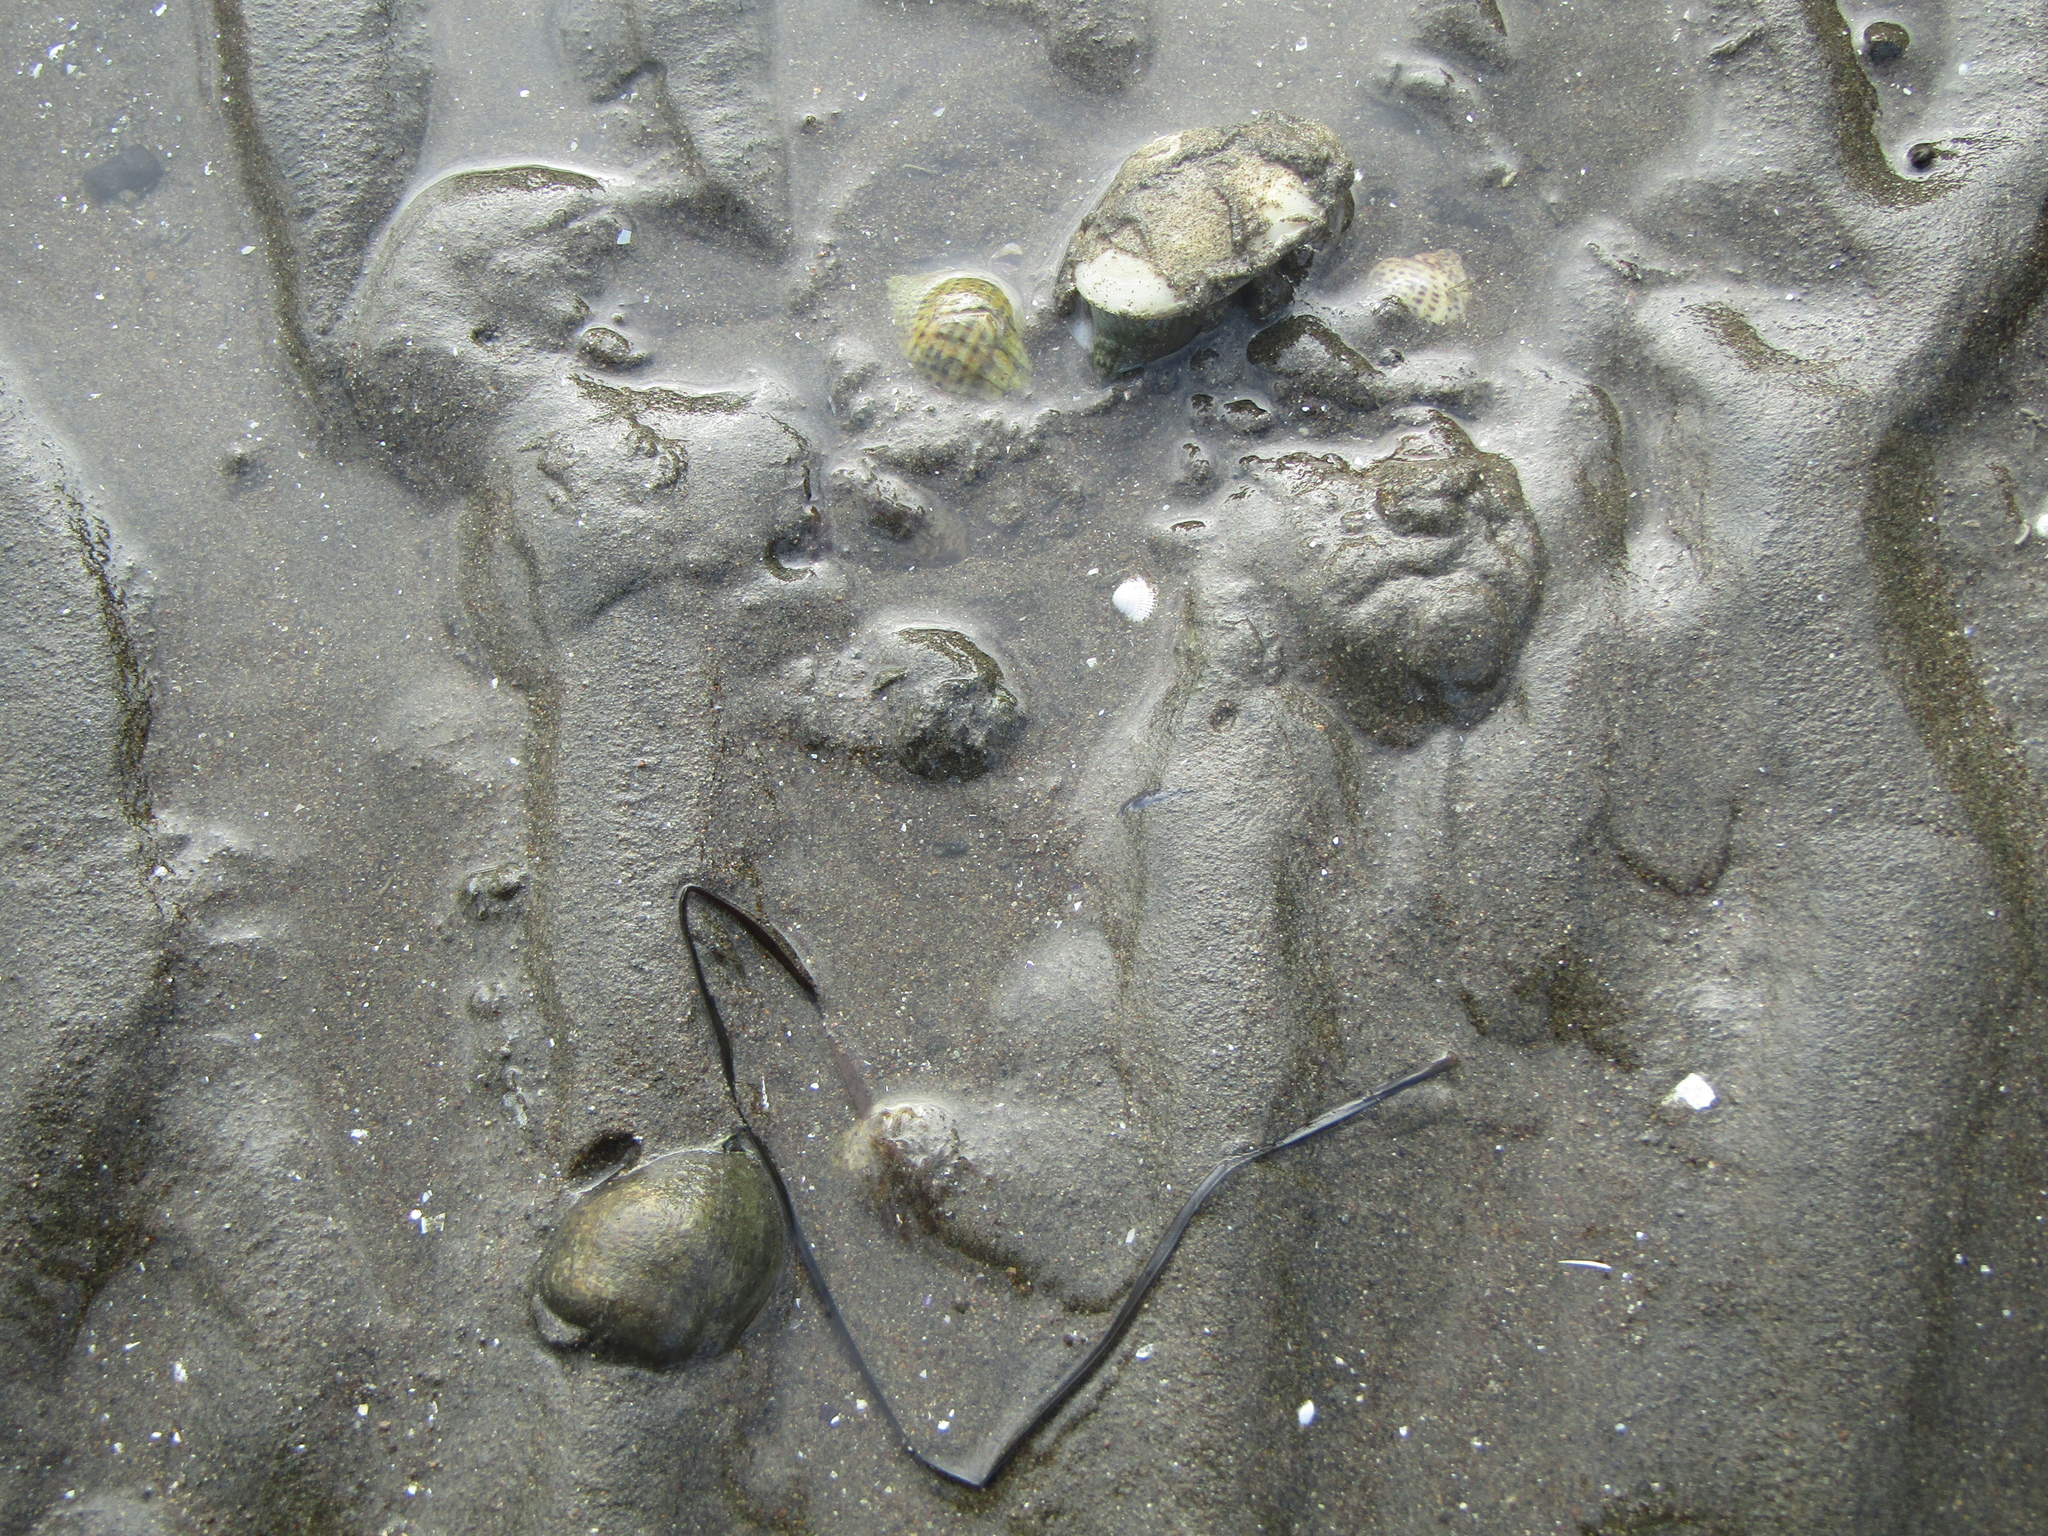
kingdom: Animalia
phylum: Mollusca
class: Gastropoda
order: Neogastropoda
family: Cominellidae
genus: Cominella
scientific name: Cominella adspersa
